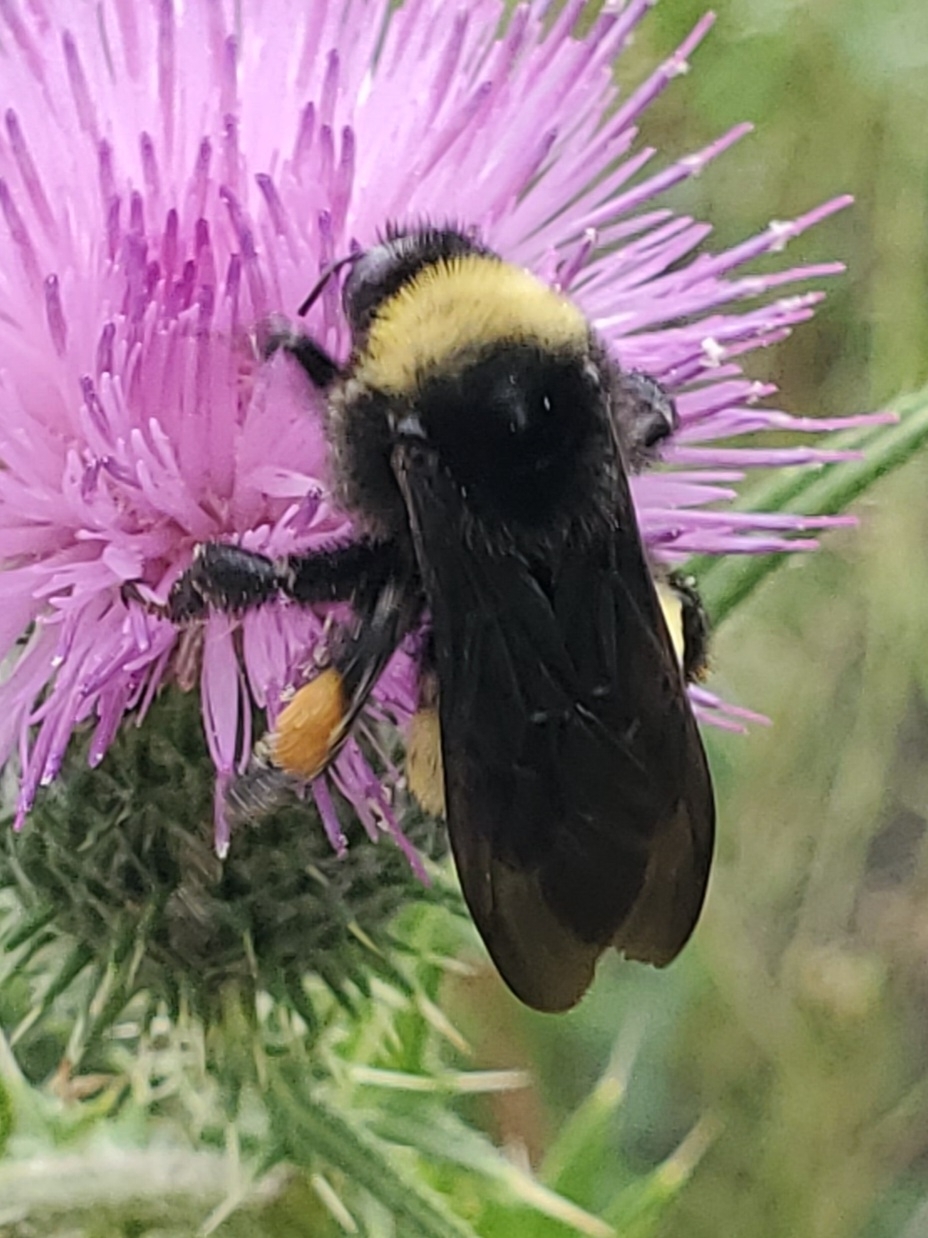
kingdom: Animalia
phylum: Arthropoda
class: Insecta
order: Hymenoptera
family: Apidae
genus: Bombus
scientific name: Bombus pensylvanicus
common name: Bumble bee
